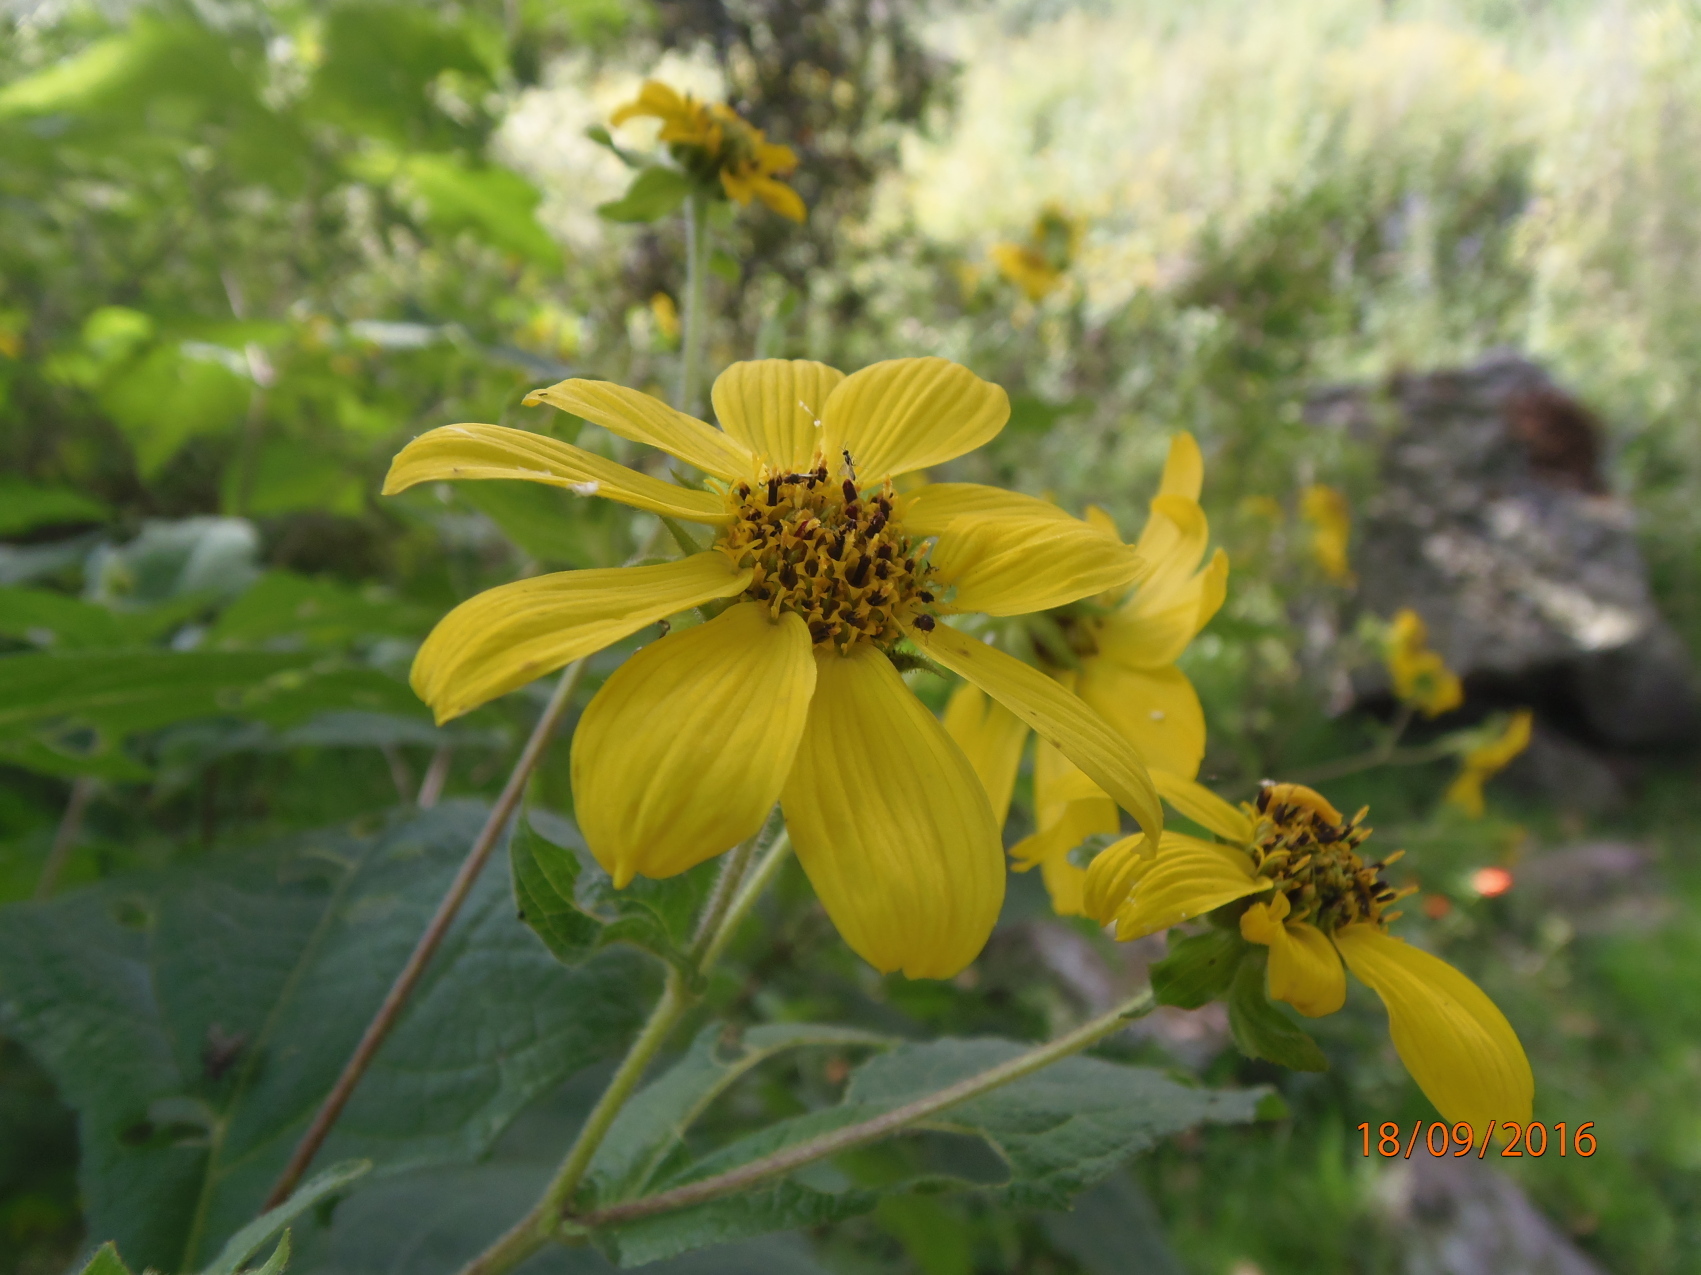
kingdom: Plantae
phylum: Tracheophyta
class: Magnoliopsida
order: Asterales
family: Asteraceae
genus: Tithonia
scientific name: Tithonia tubaeformis
